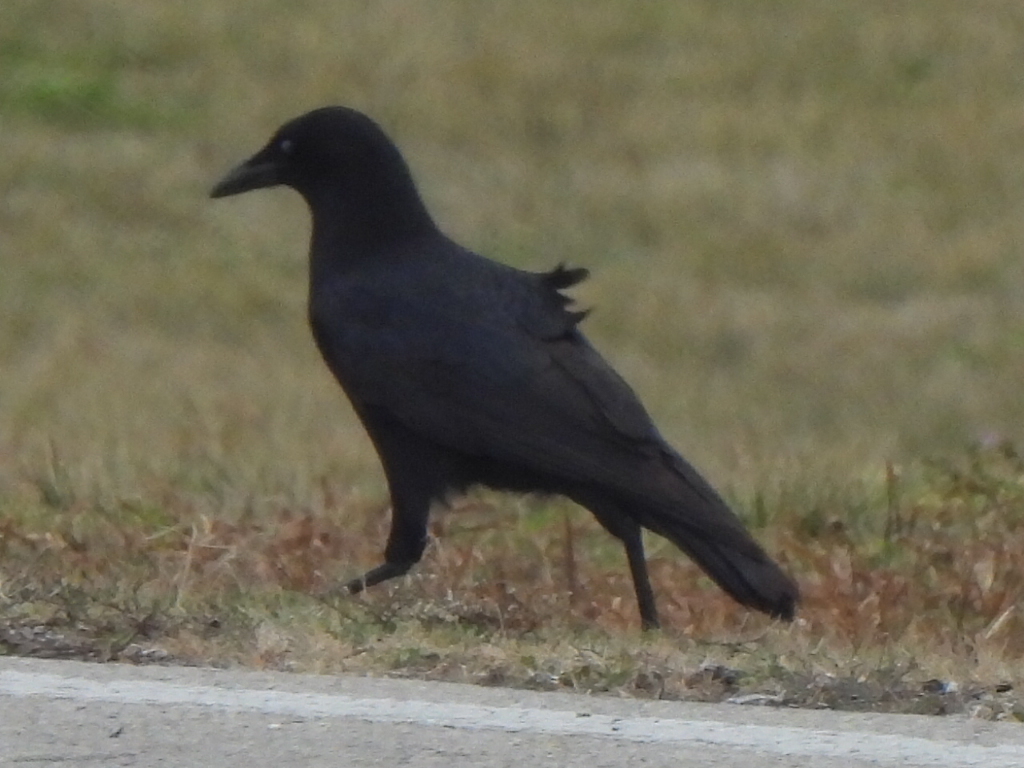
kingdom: Animalia
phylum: Chordata
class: Aves
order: Passeriformes
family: Corvidae
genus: Corvus
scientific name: Corvus brachyrhynchos
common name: American crow
